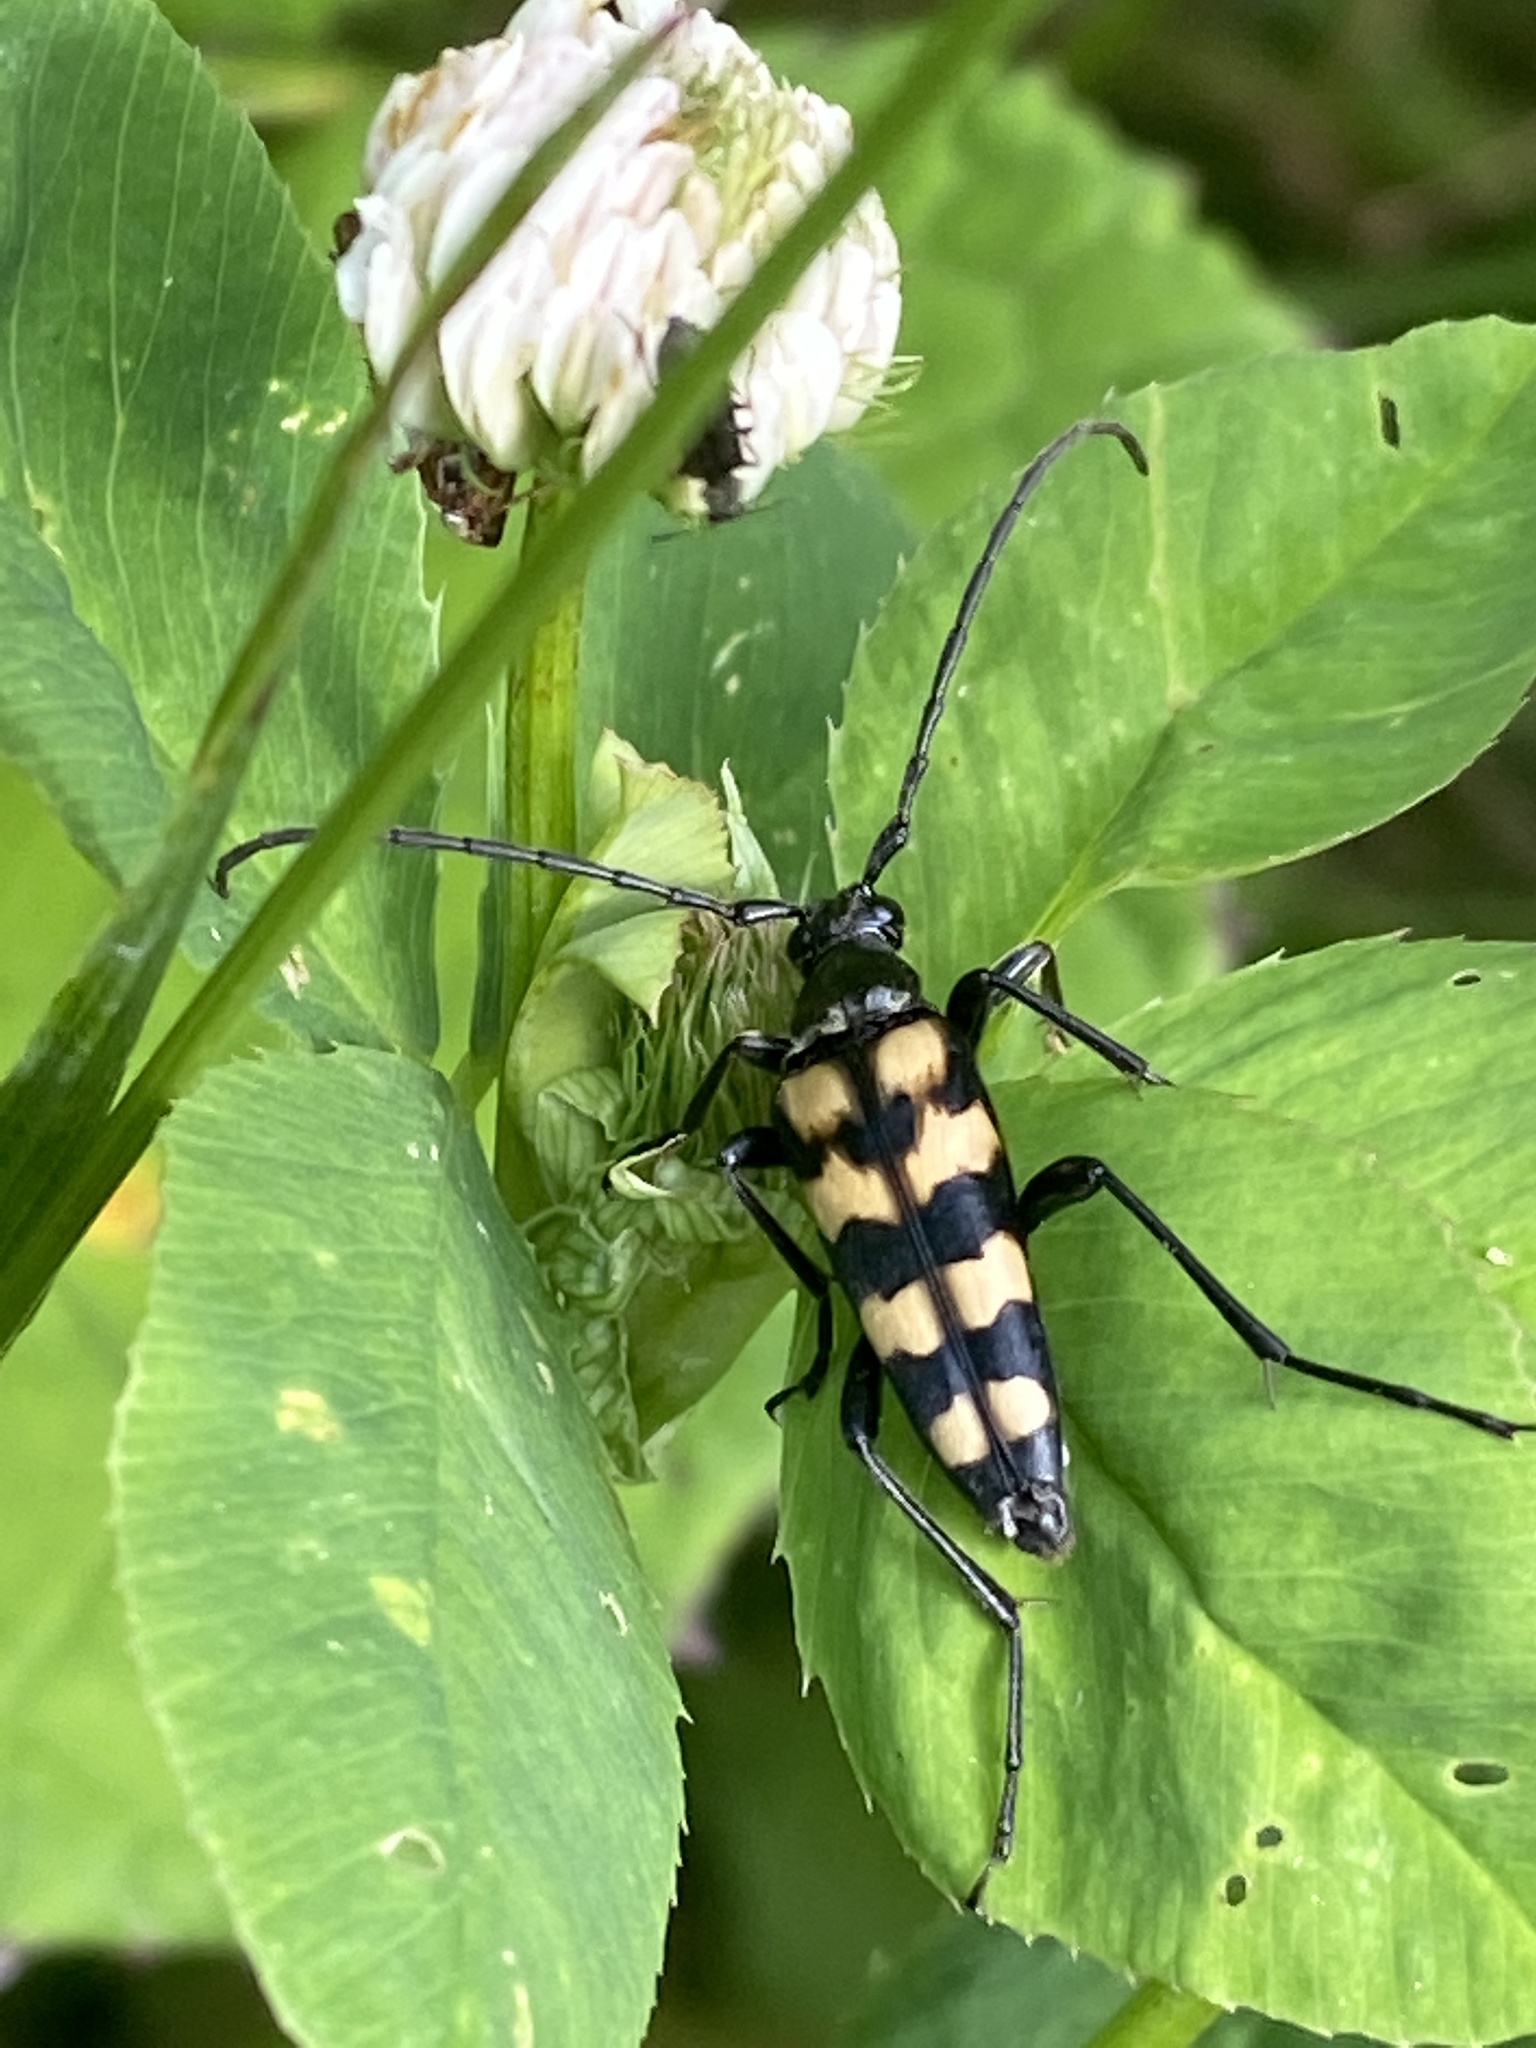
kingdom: Animalia
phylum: Arthropoda
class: Insecta
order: Coleoptera
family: Cerambycidae
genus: Leptura
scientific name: Leptura quadrifasciata
